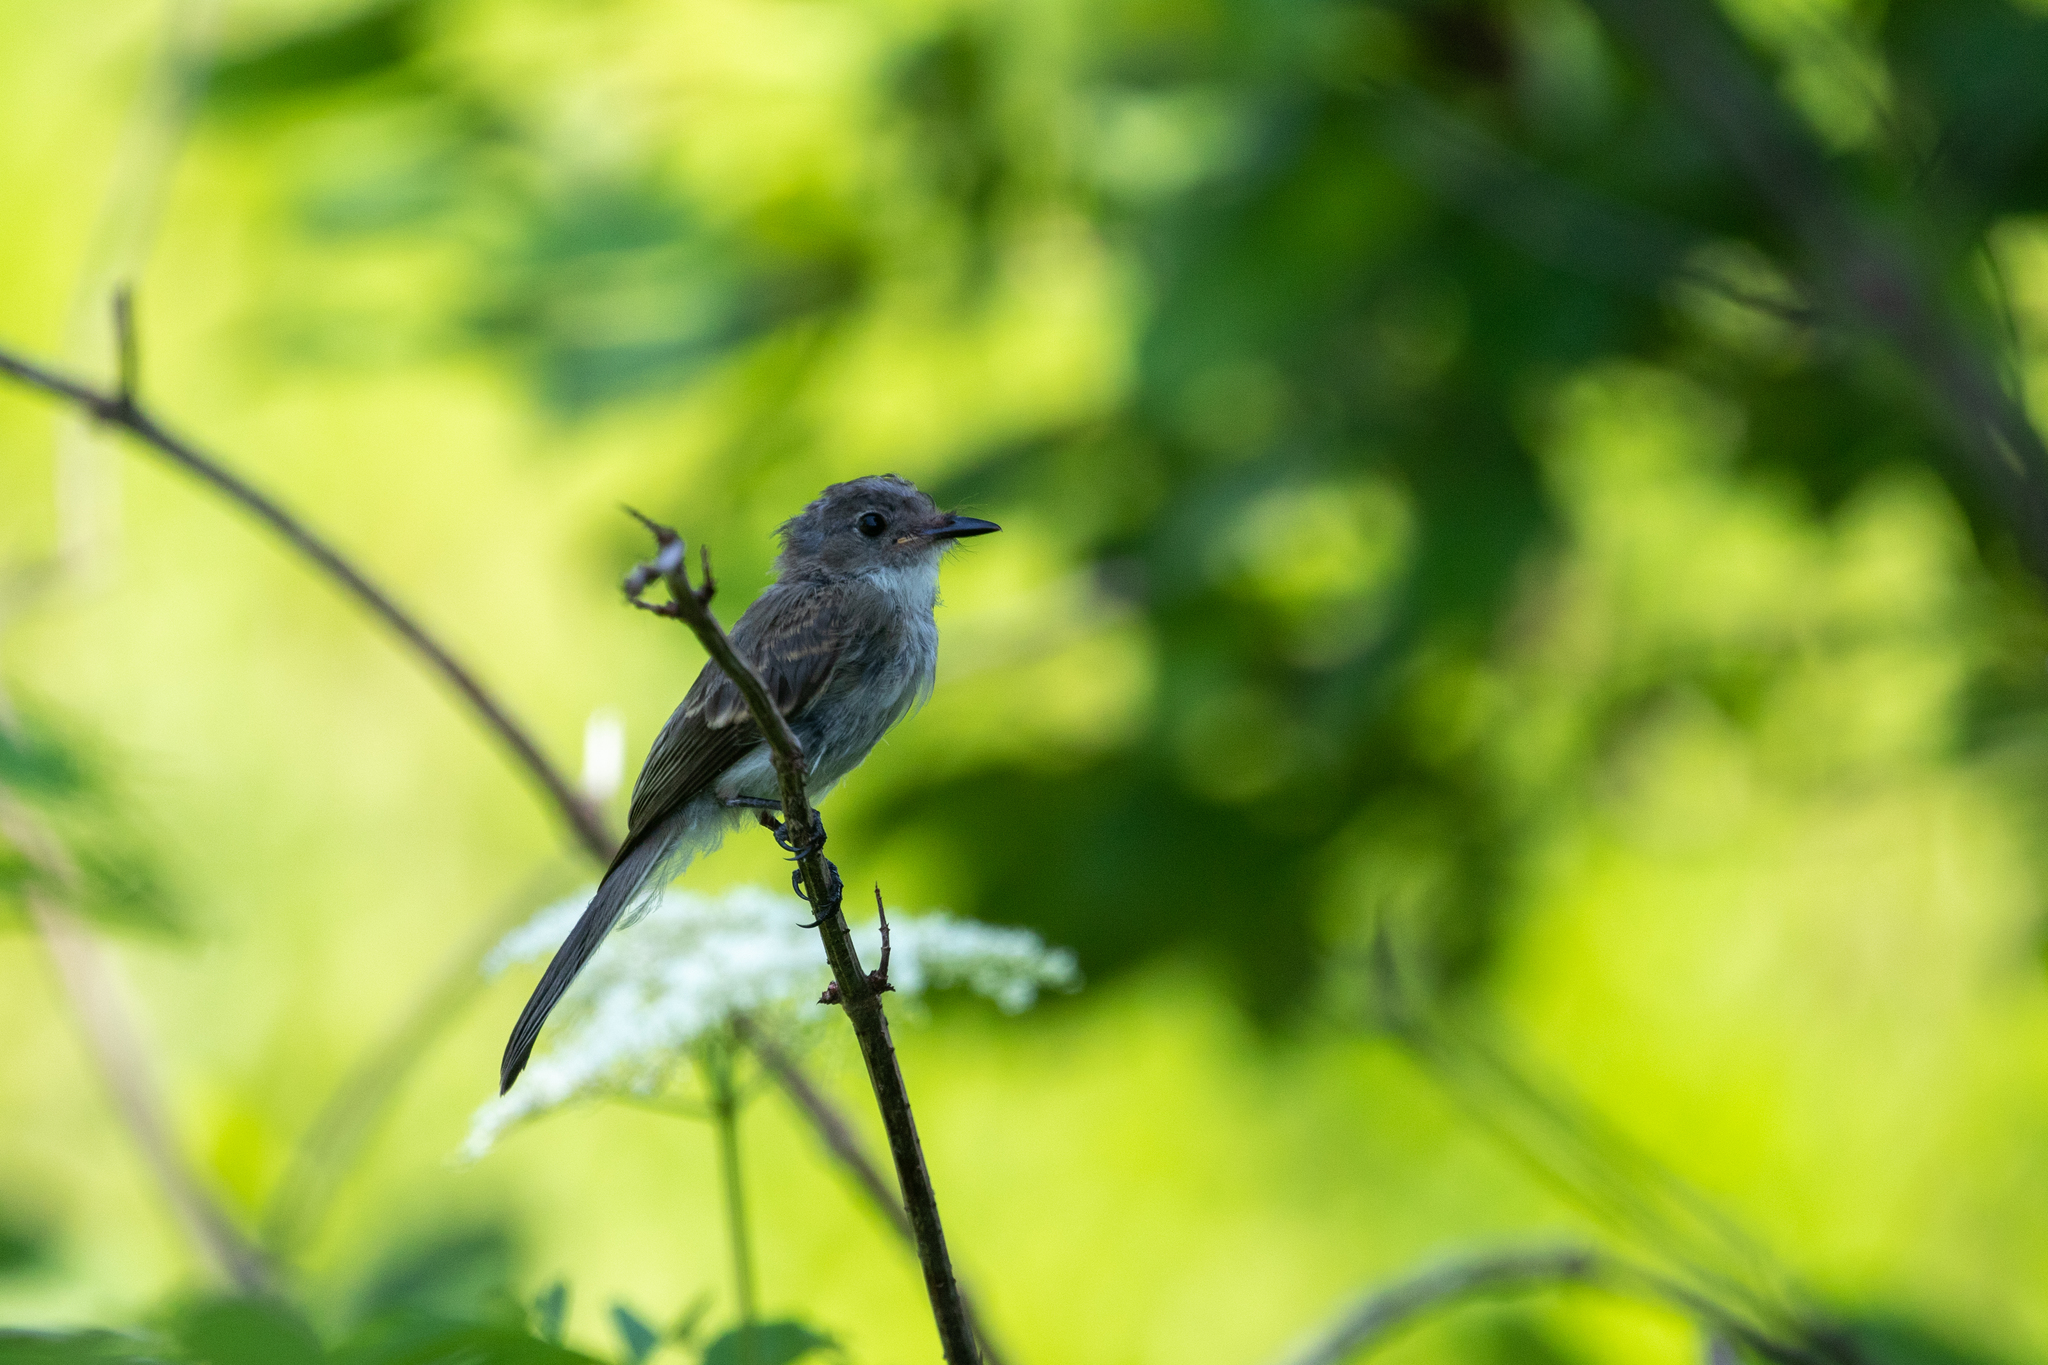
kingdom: Animalia
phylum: Chordata
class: Aves
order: Passeriformes
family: Tyrannidae
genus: Sayornis
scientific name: Sayornis phoebe
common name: Eastern phoebe
